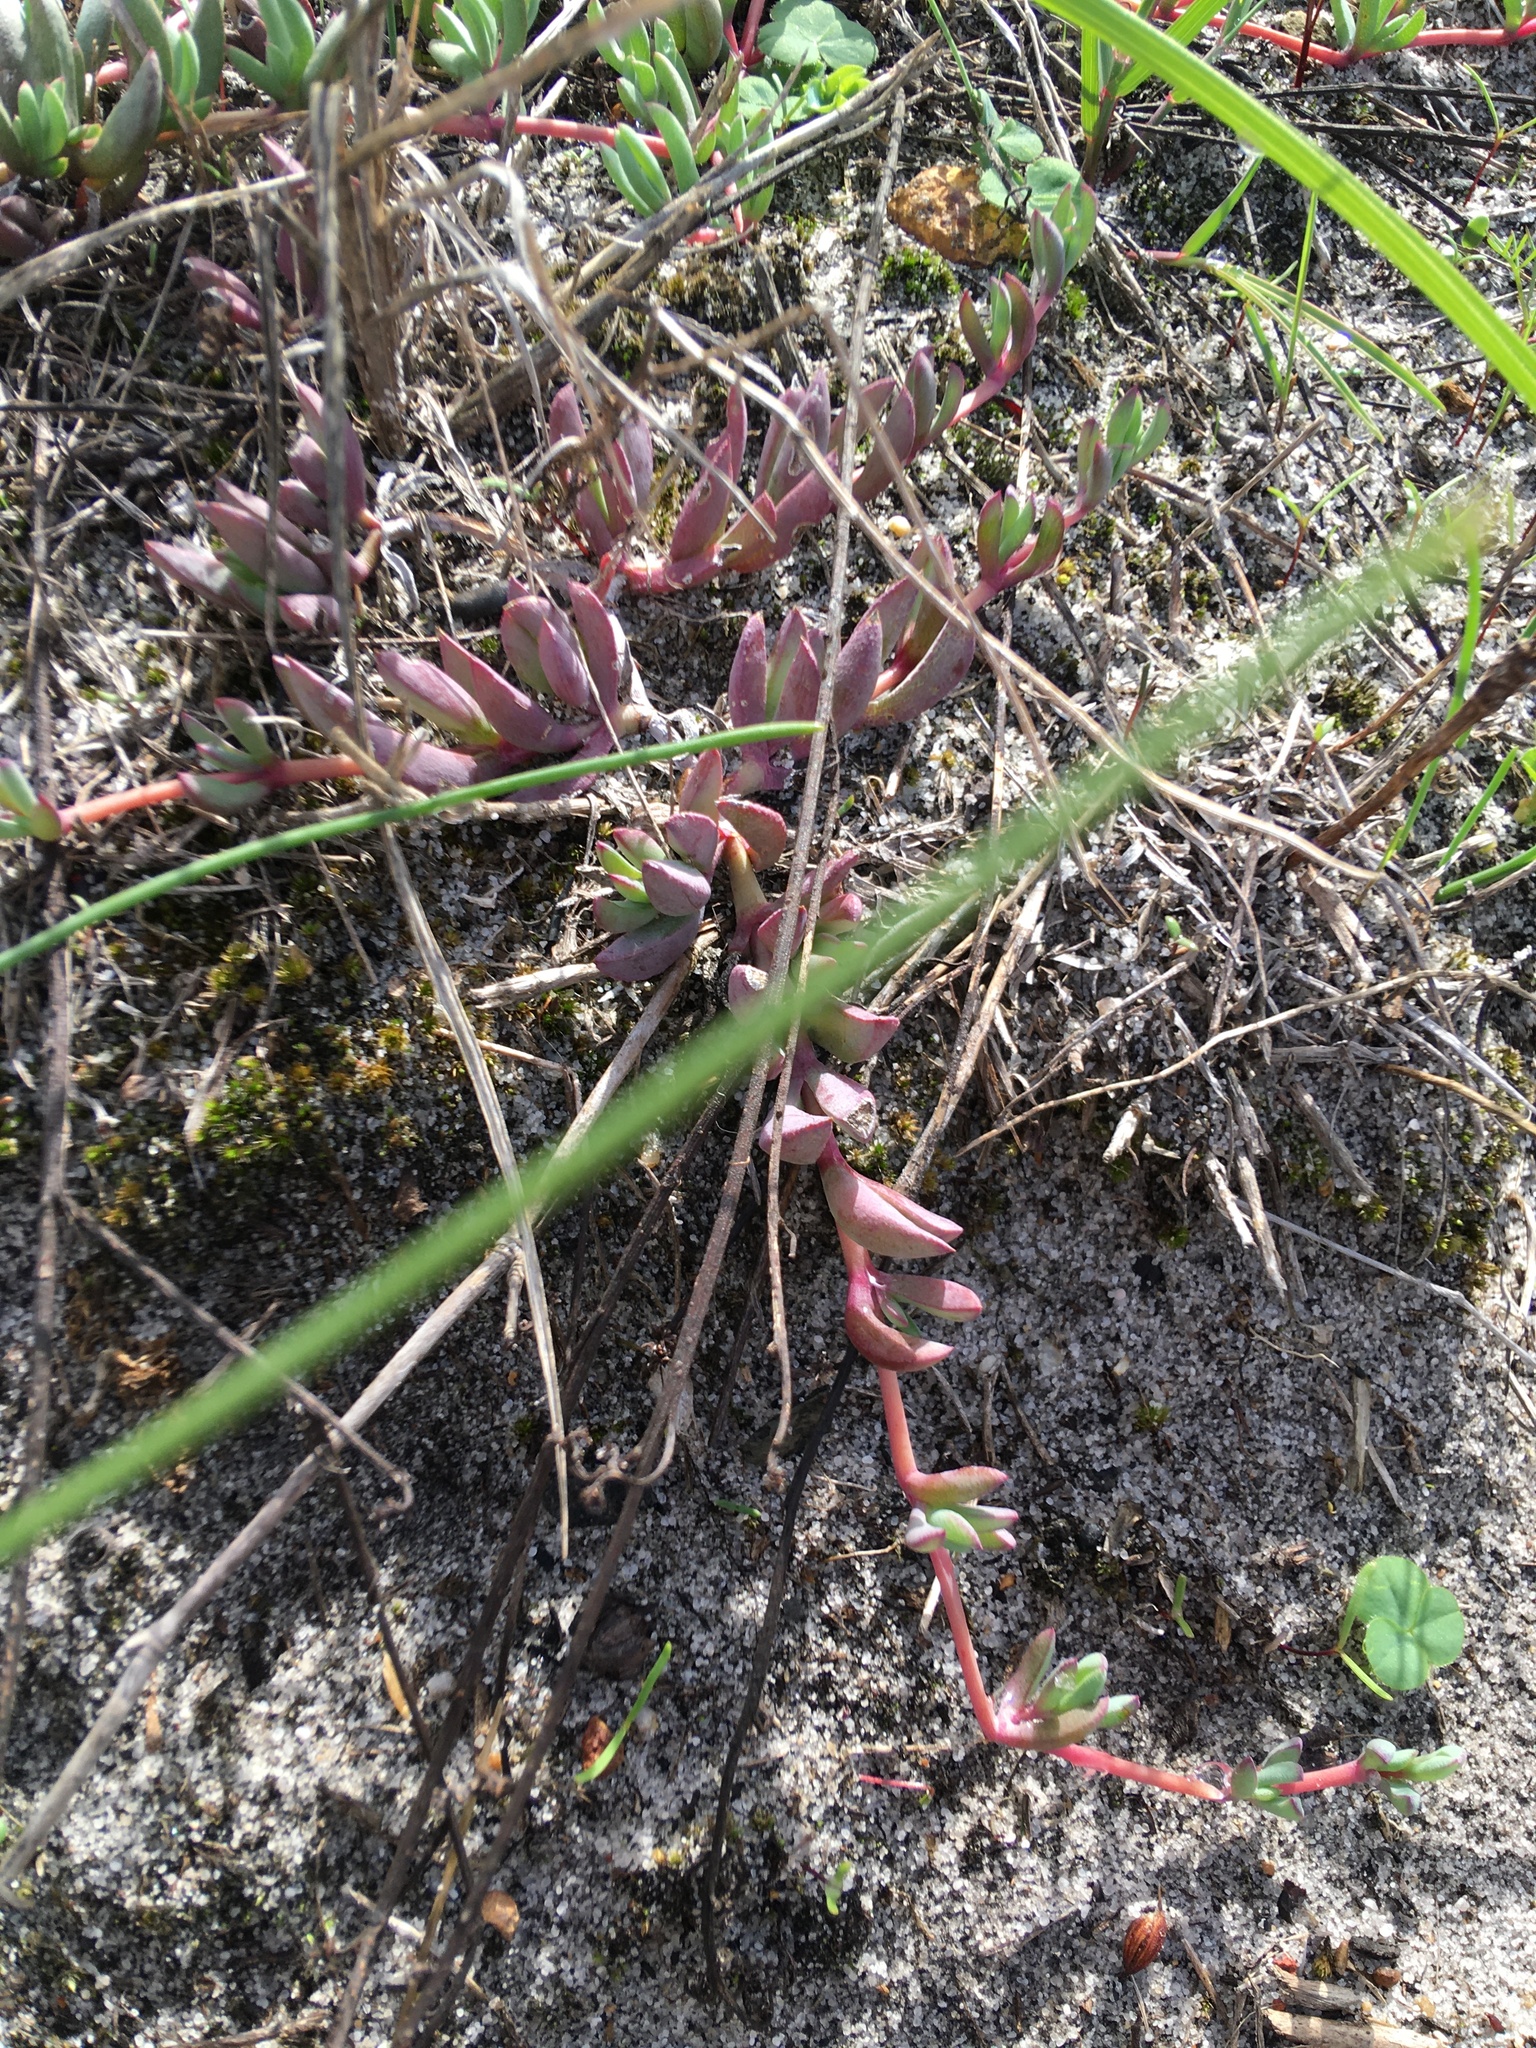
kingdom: Plantae
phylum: Tracheophyta
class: Magnoliopsida
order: Caryophyllales
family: Aizoaceae
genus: Lampranthus
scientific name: Lampranthus reptans
